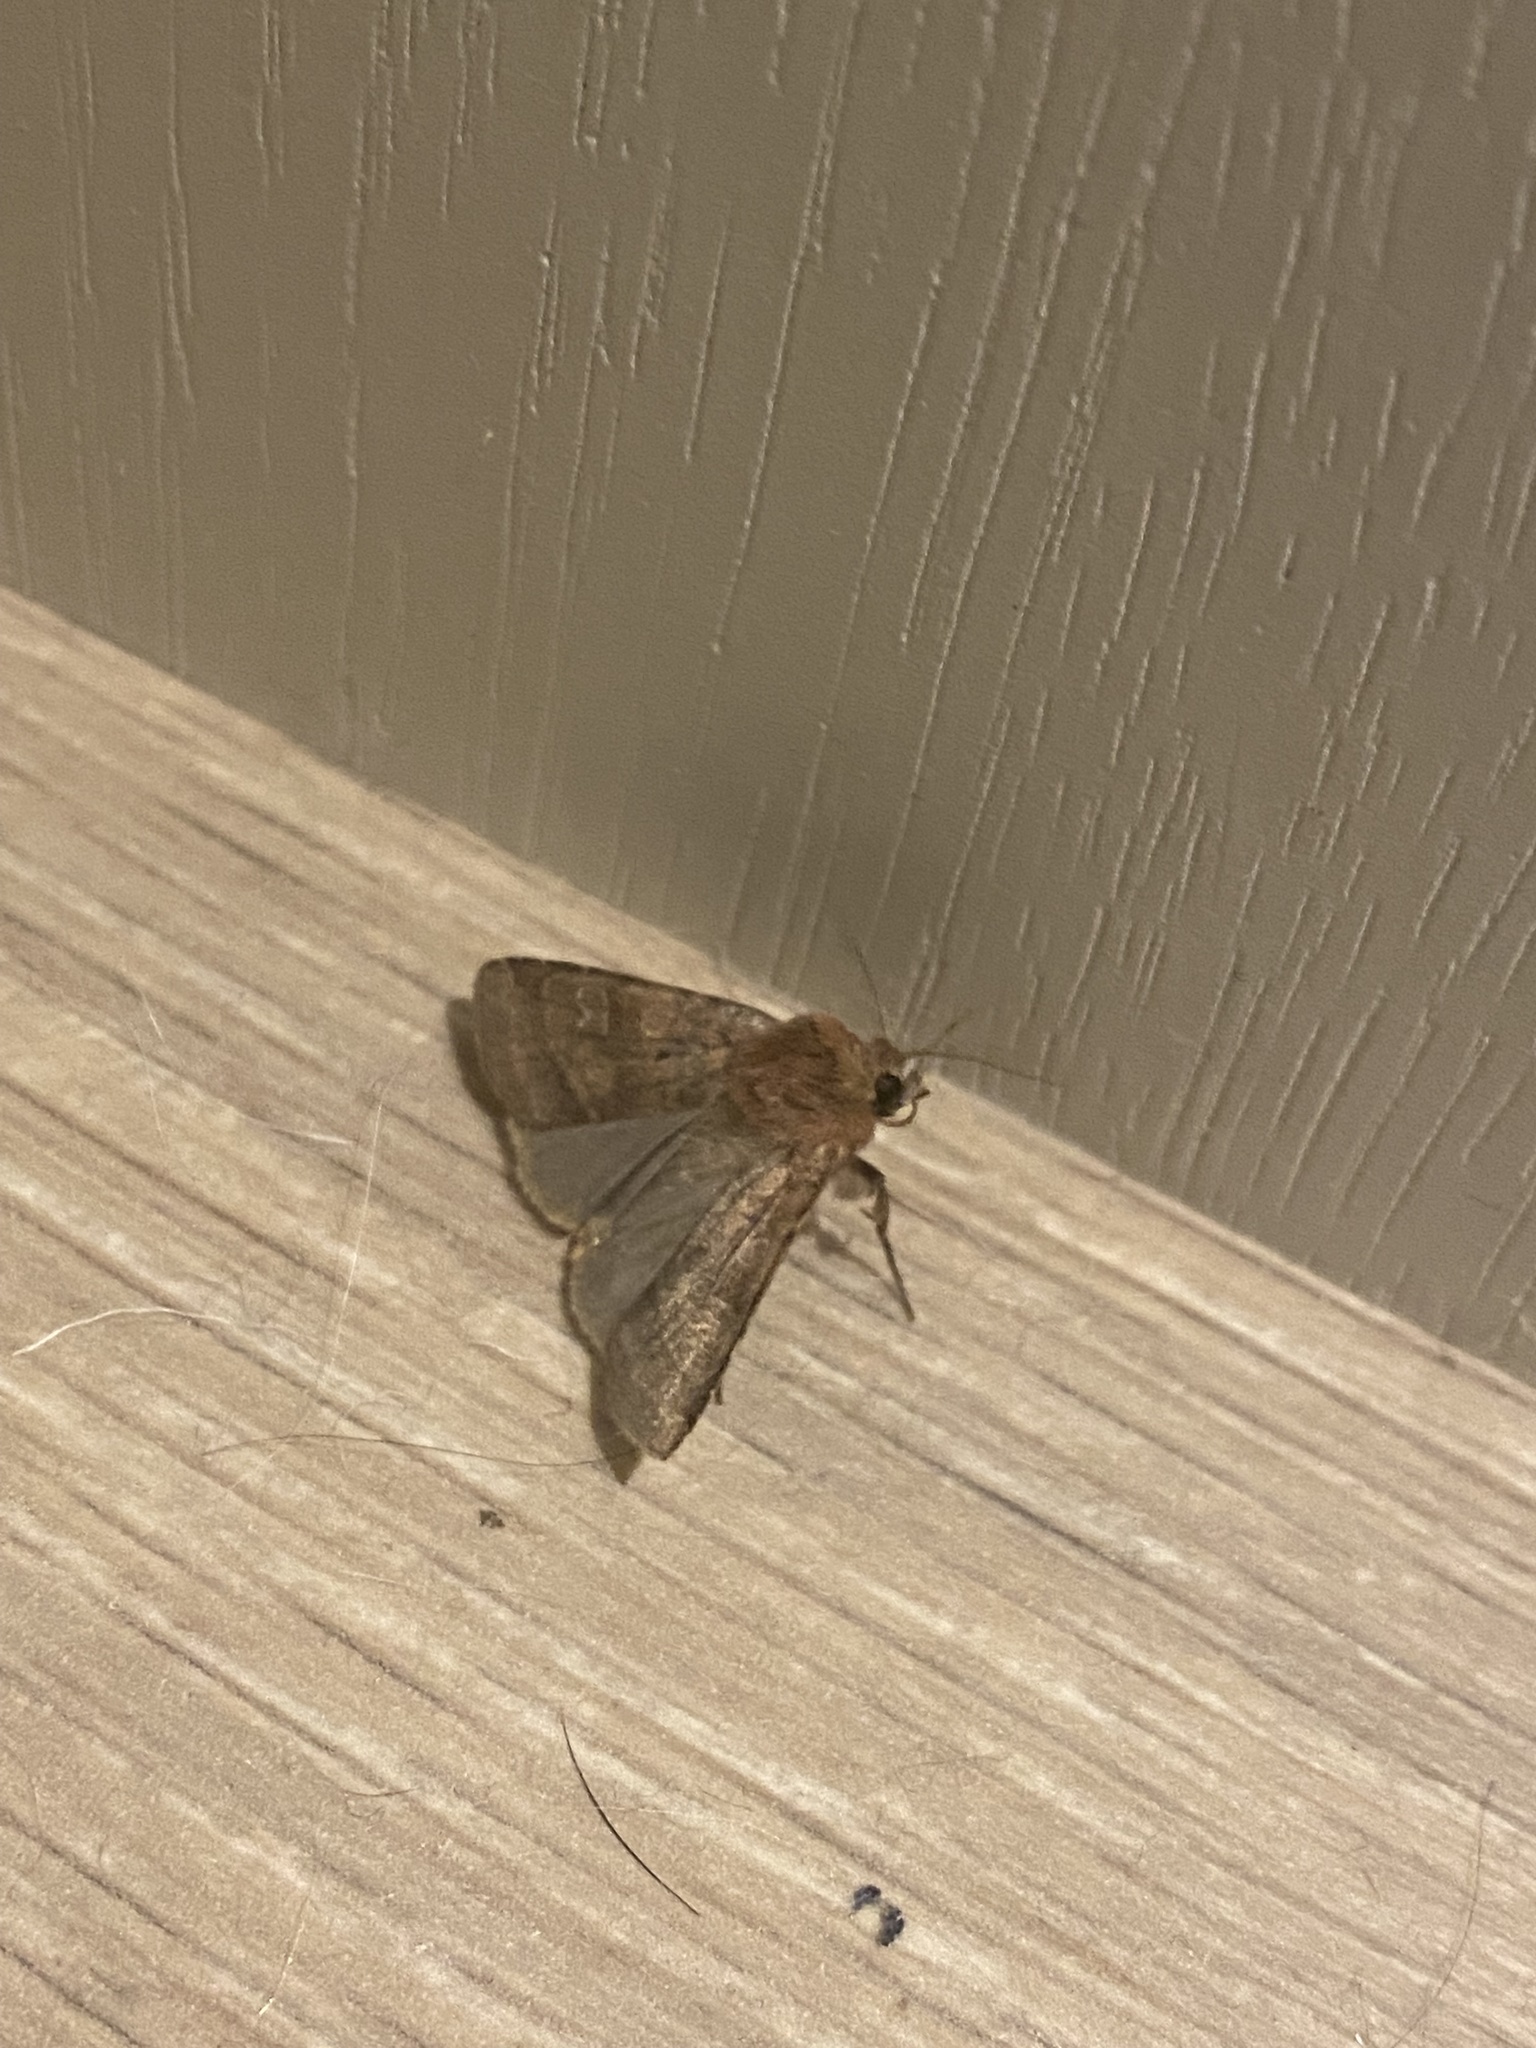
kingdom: Animalia
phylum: Arthropoda
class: Insecta
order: Lepidoptera
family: Noctuidae
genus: Diarsia
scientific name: Diarsia rubi
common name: Small square-spot
